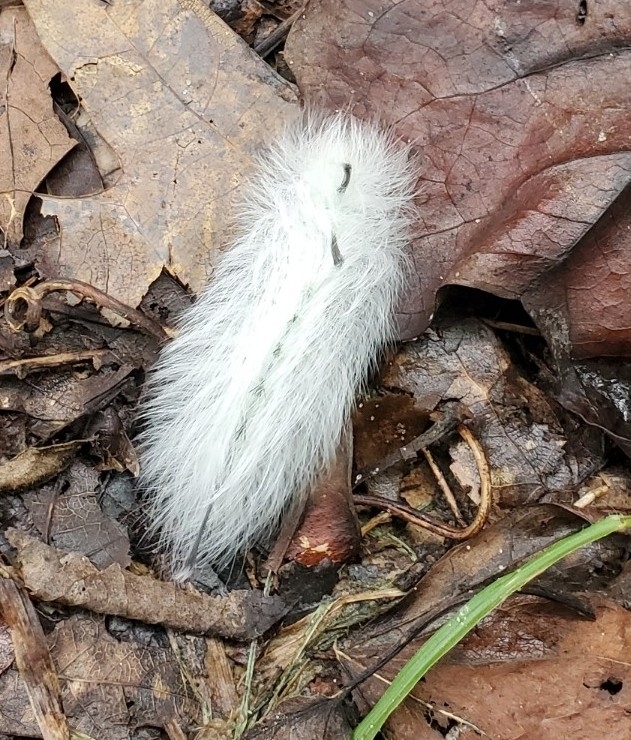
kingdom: Animalia
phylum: Arthropoda
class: Insecta
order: Lepidoptera
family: Apatelodidae
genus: Hygrochroa
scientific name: Hygrochroa Apatelodes torrefacta
